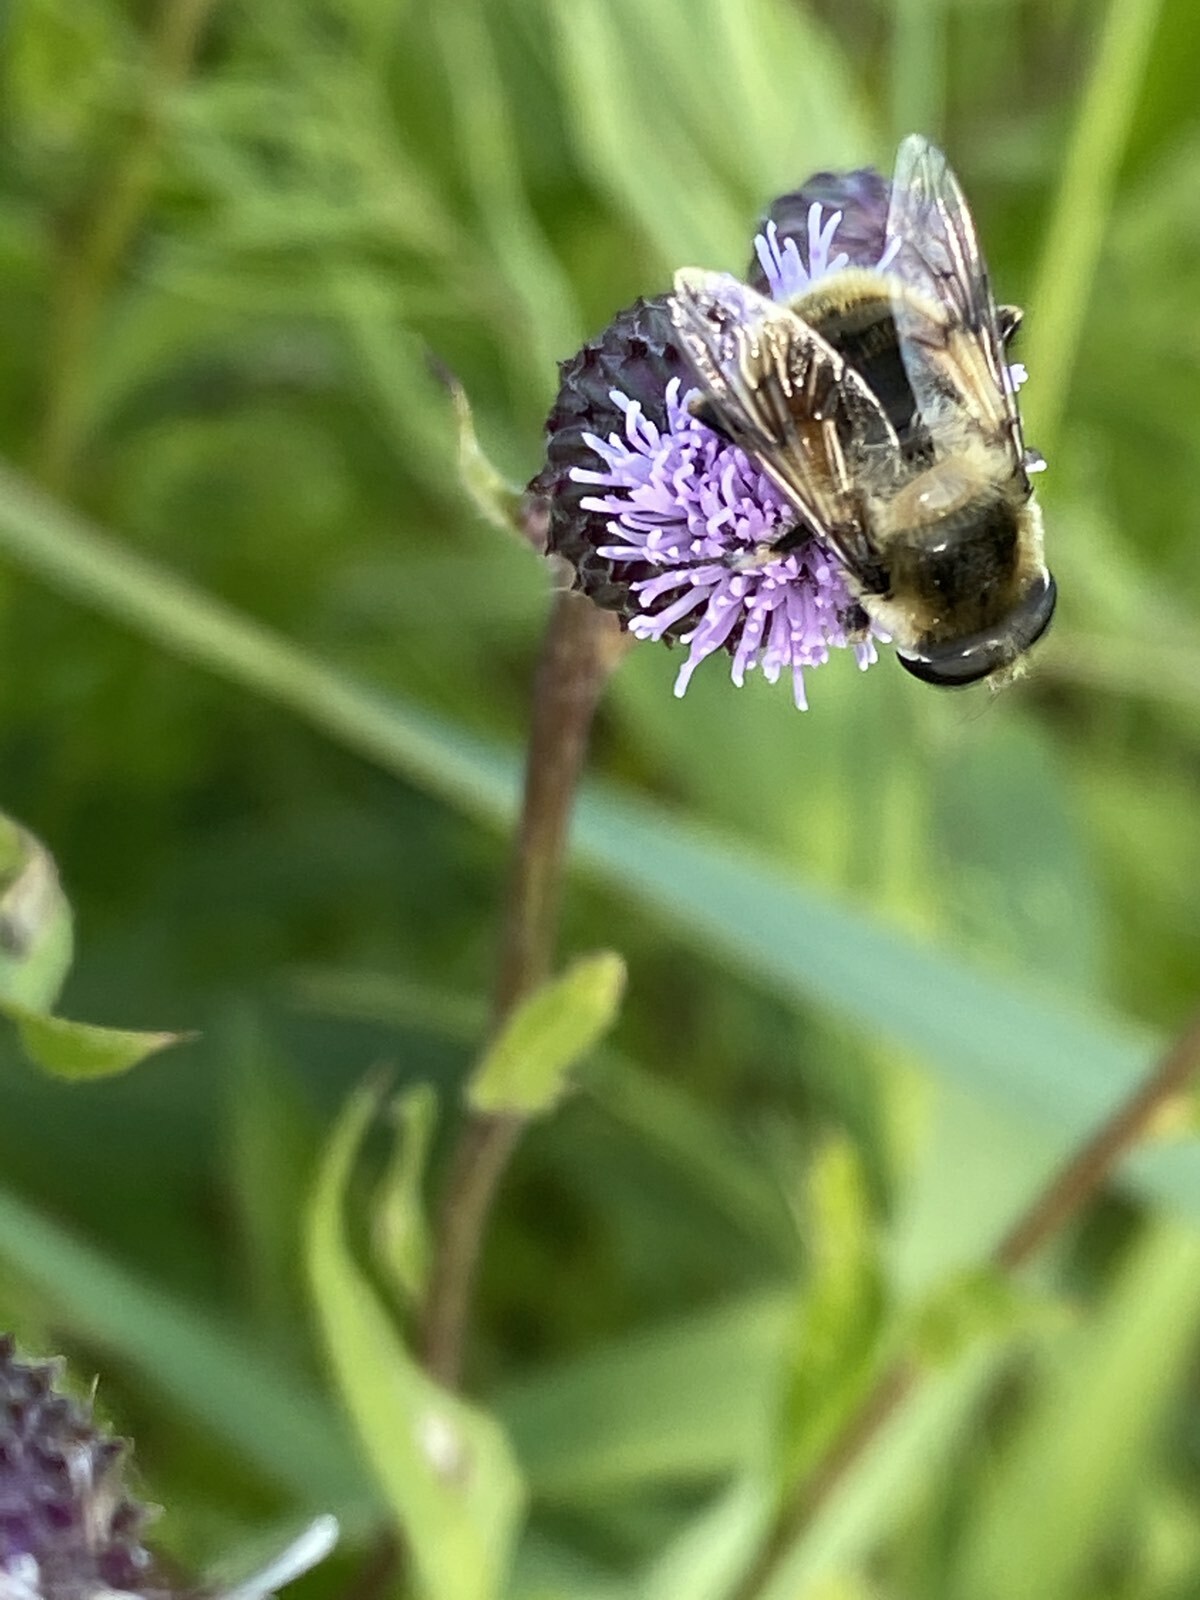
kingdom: Animalia
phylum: Arthropoda
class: Insecta
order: Diptera
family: Syrphidae
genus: Eristalis
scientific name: Eristalis anthophorina
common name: Orange-spotted drone fly
